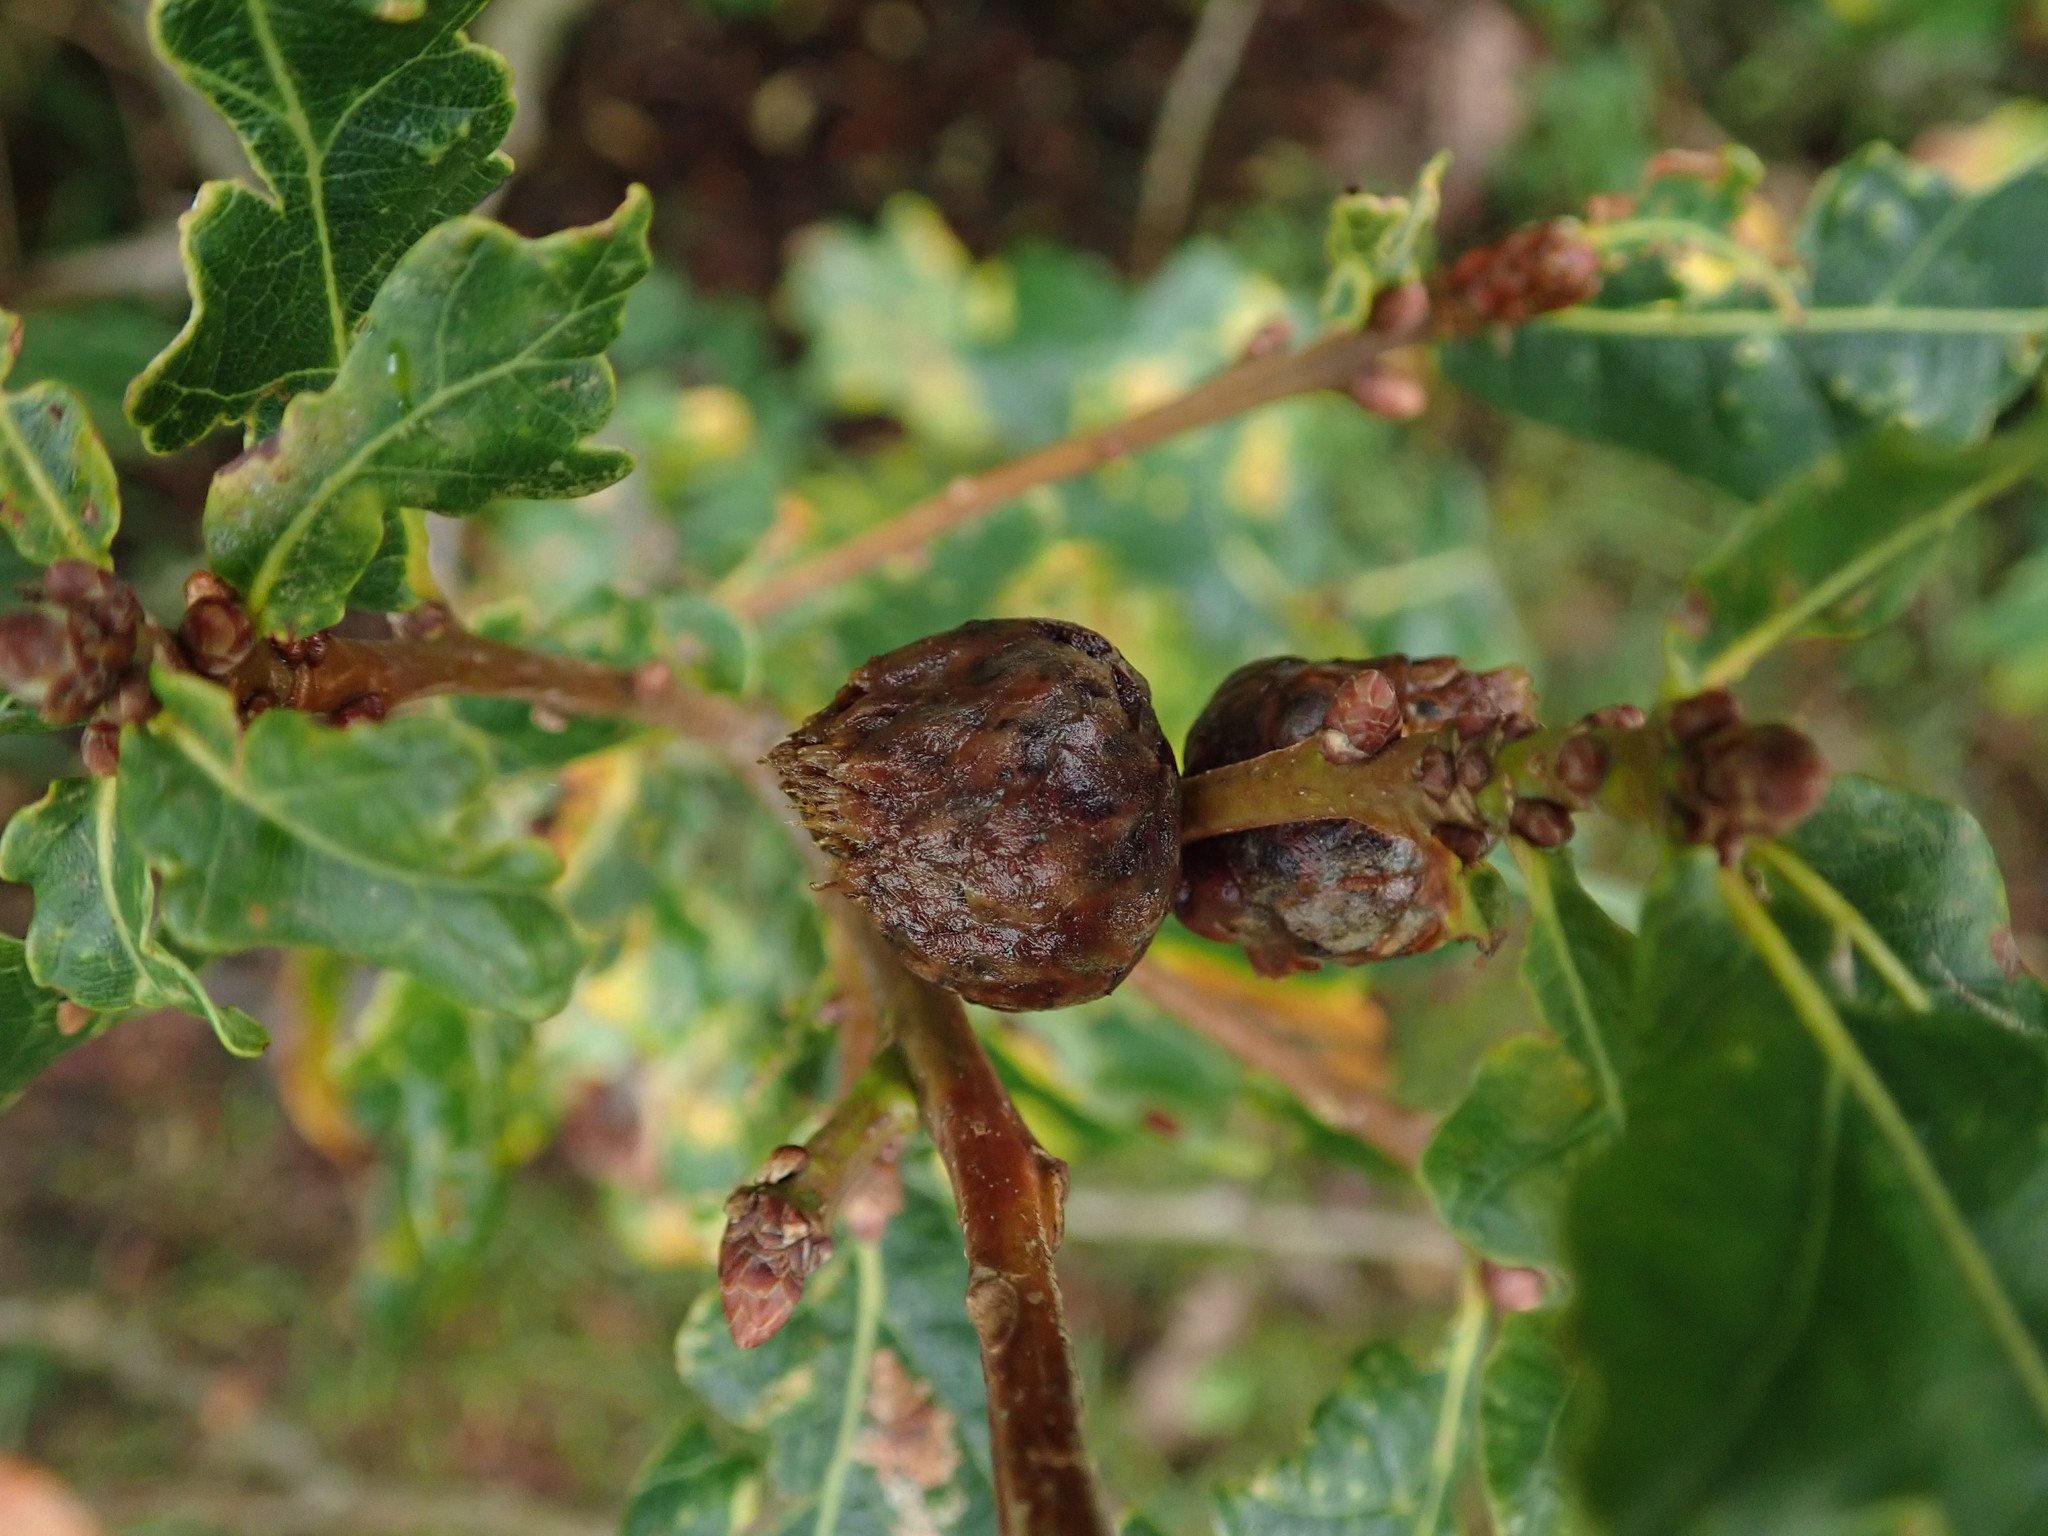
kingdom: Animalia
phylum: Arthropoda
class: Insecta
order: Hymenoptera
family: Cynipidae
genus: Andricus
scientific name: Andricus foecundatrix
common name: Artichoke gall
